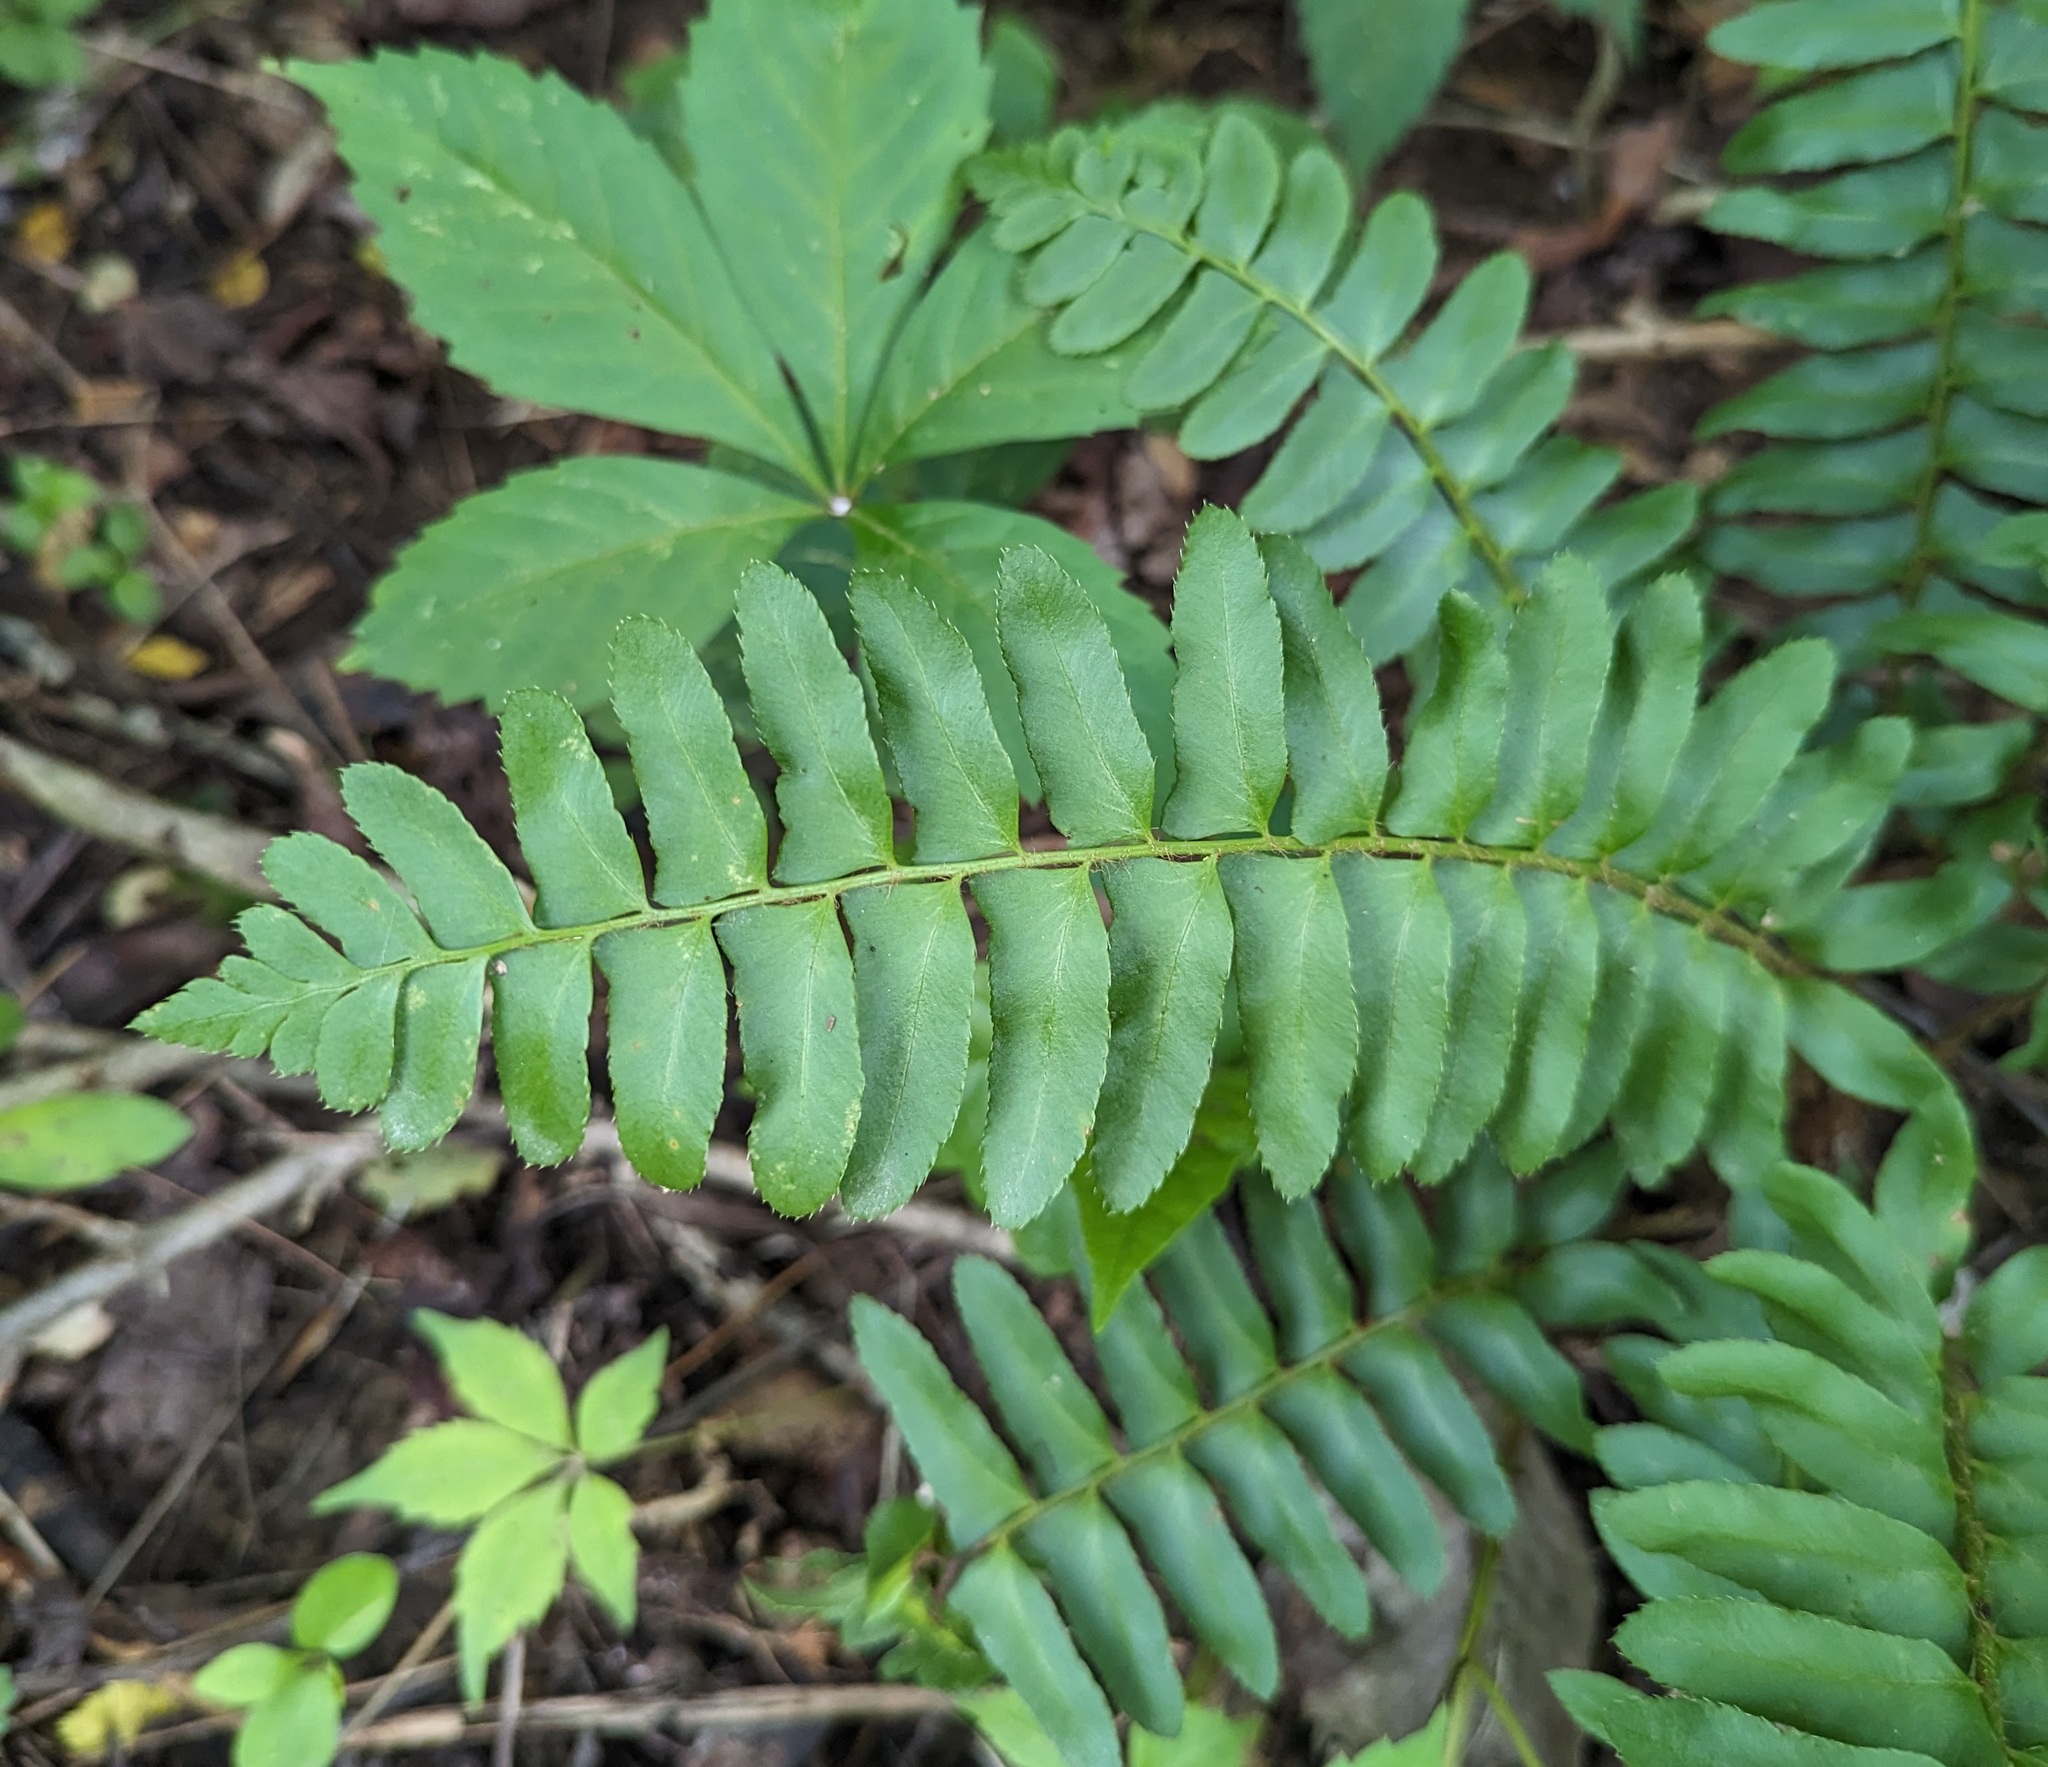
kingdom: Plantae
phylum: Tracheophyta
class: Polypodiopsida
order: Polypodiales
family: Dryopteridaceae
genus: Polystichum
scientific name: Polystichum acrostichoides
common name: Christmas fern
